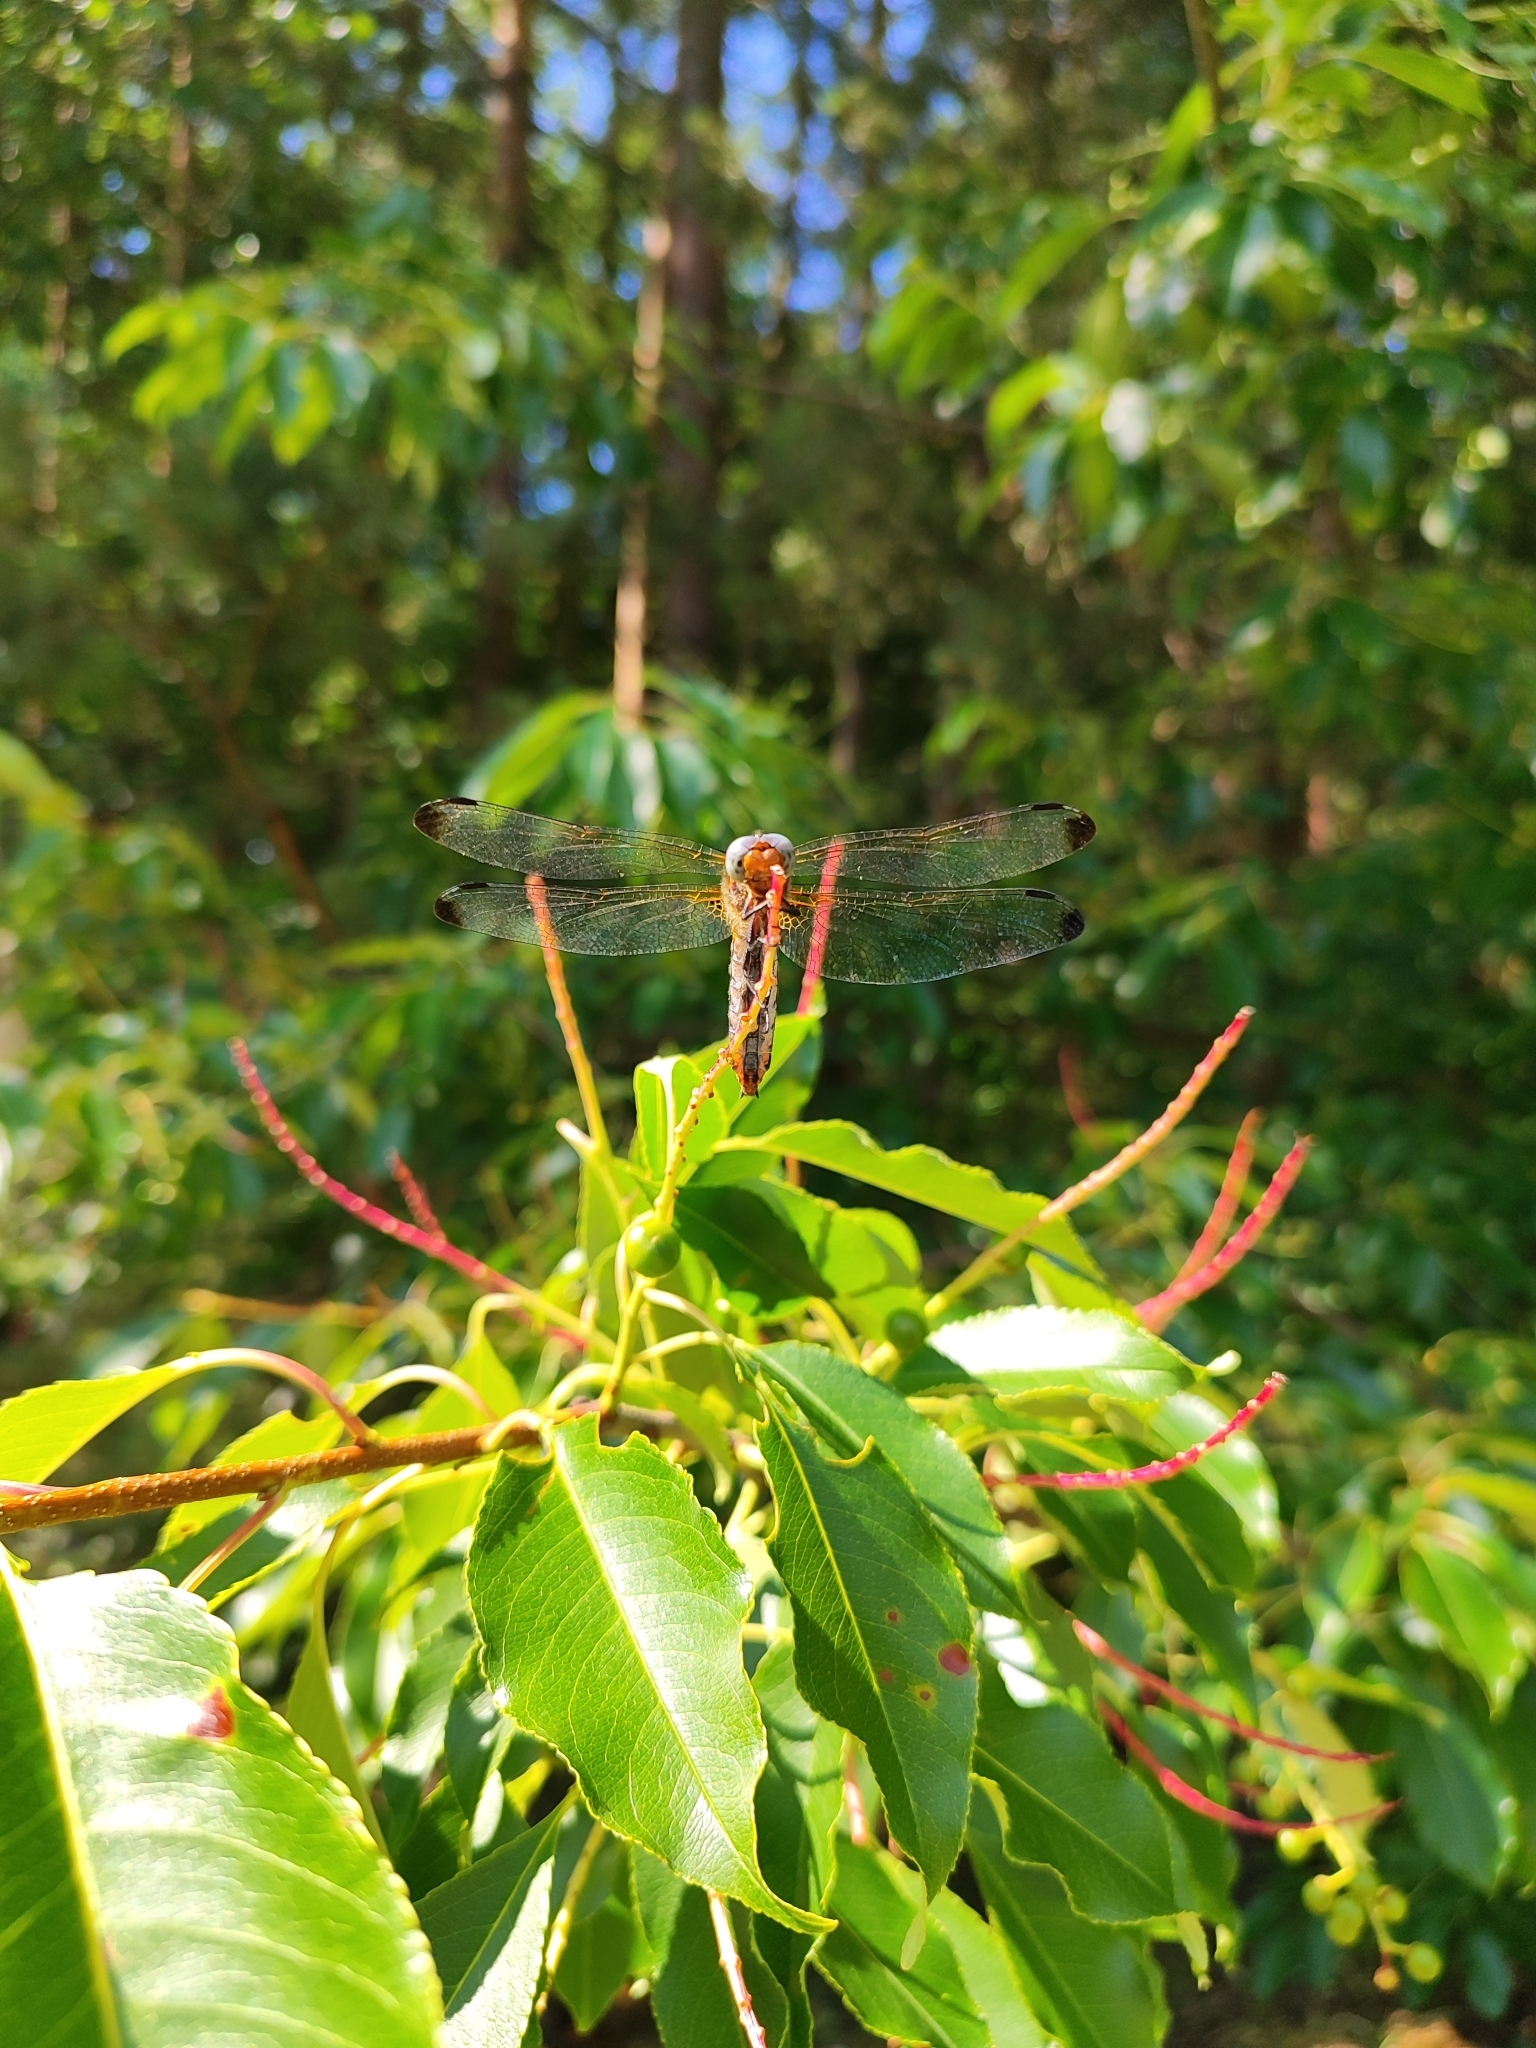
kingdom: Animalia
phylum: Arthropoda
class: Insecta
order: Odonata
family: Libellulidae
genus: Libellula
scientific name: Libellula fulva
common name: Blue chaser
